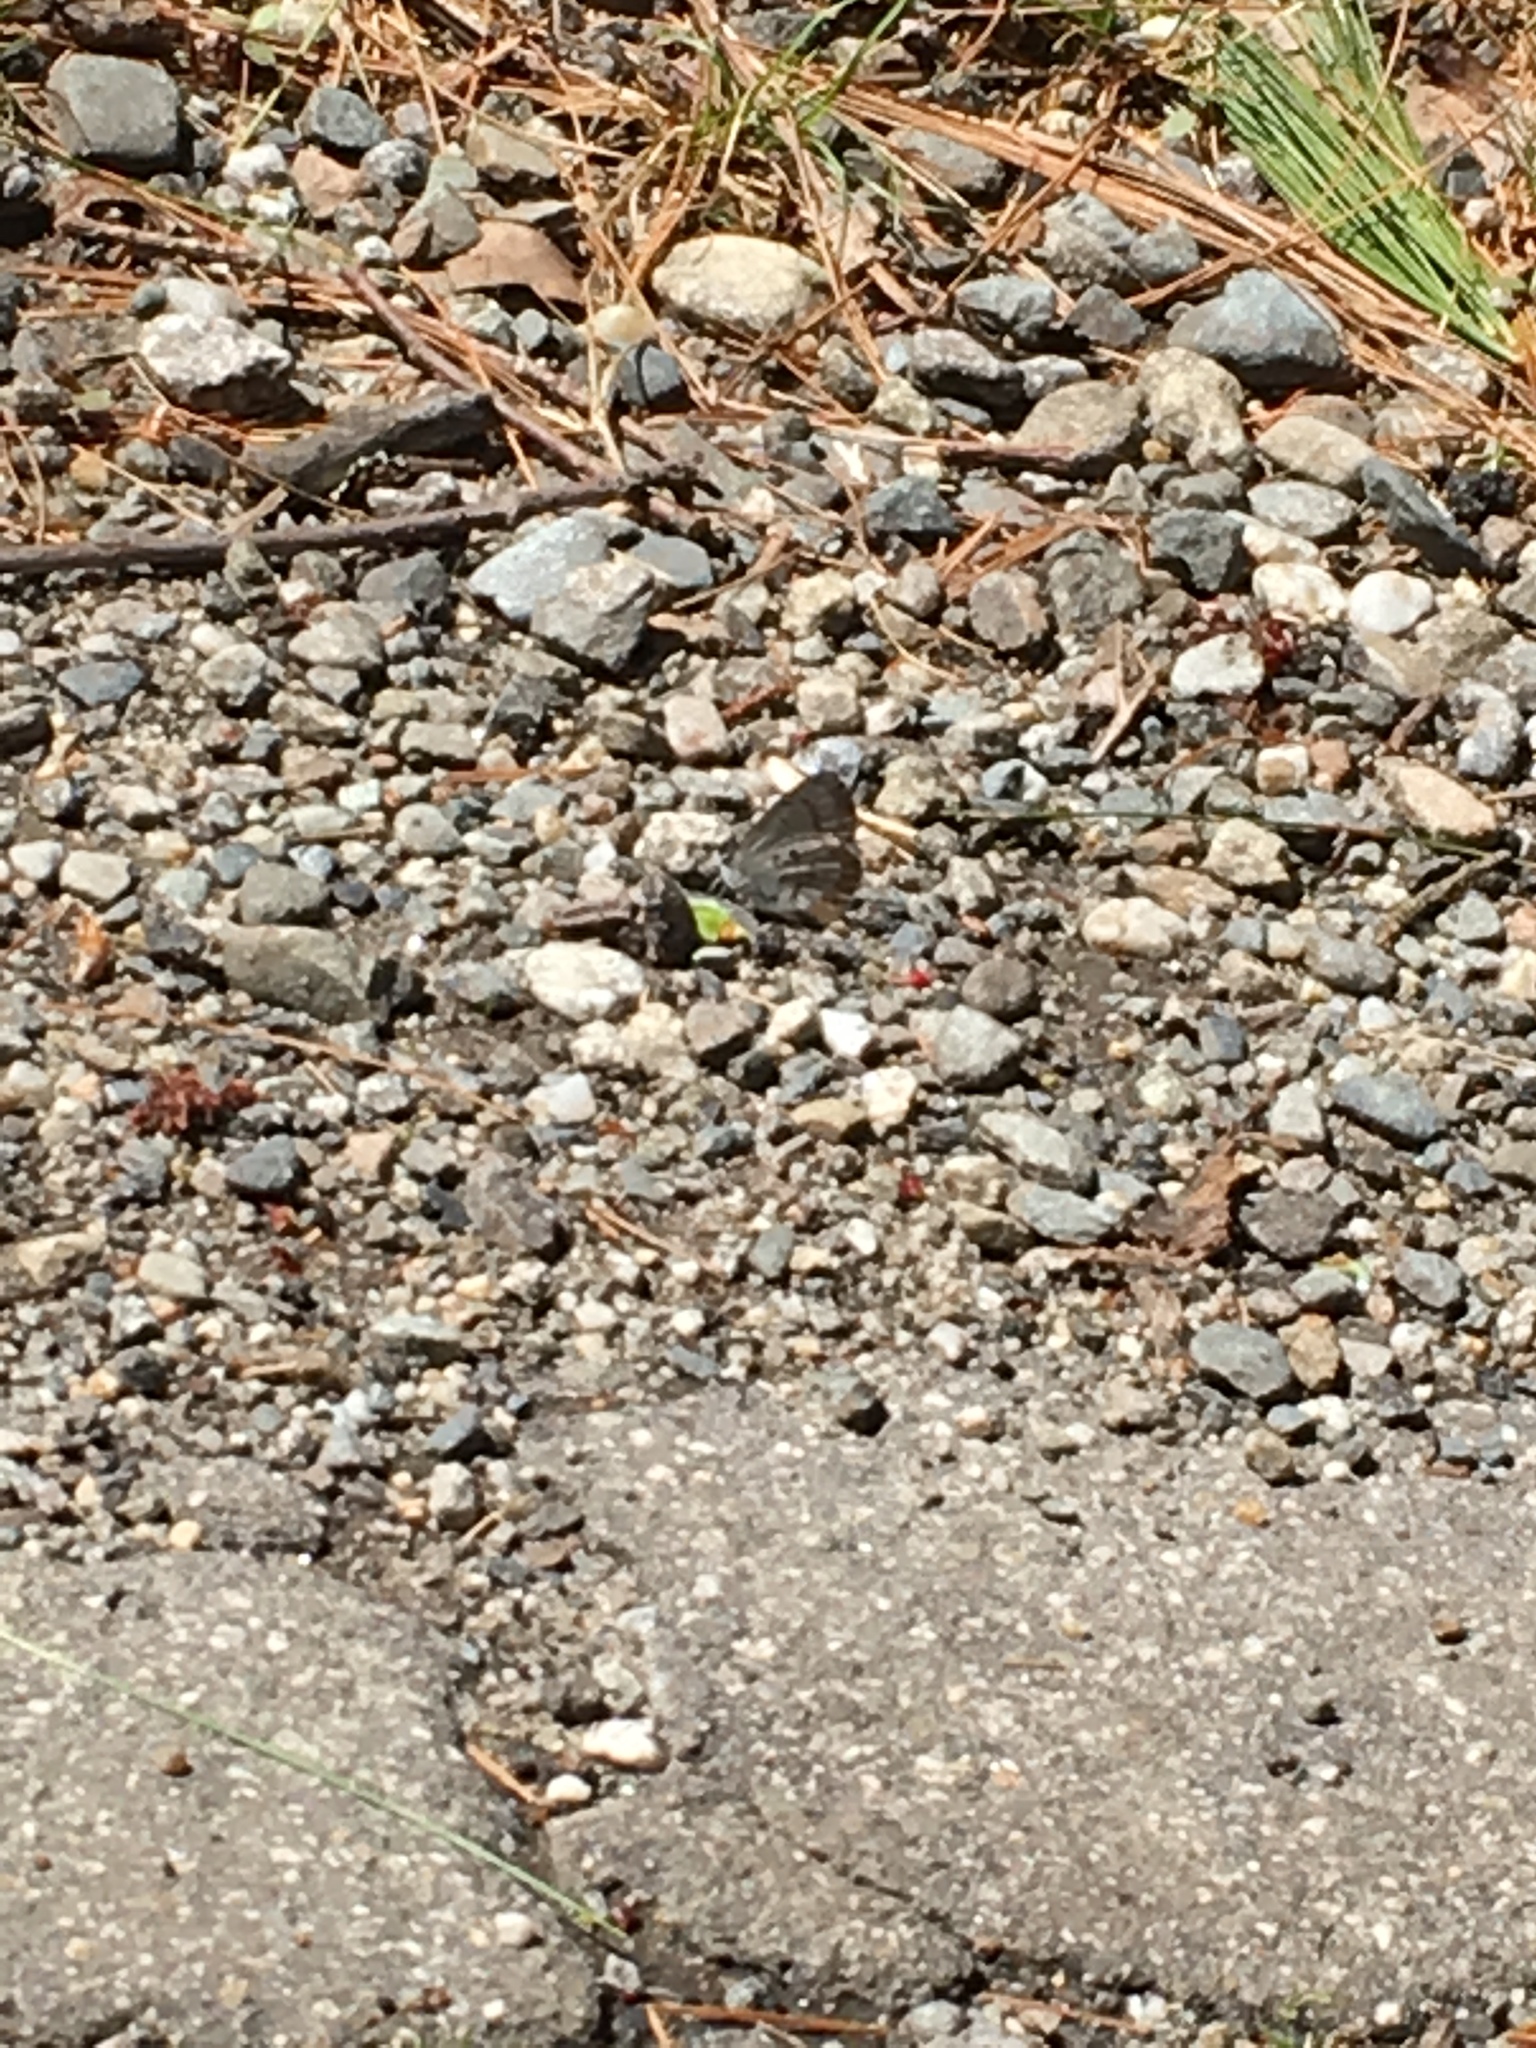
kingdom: Animalia
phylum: Arthropoda
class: Insecta
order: Lepidoptera
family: Lycaenidae
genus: Celastrina
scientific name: Celastrina ladon
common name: Spring azure
